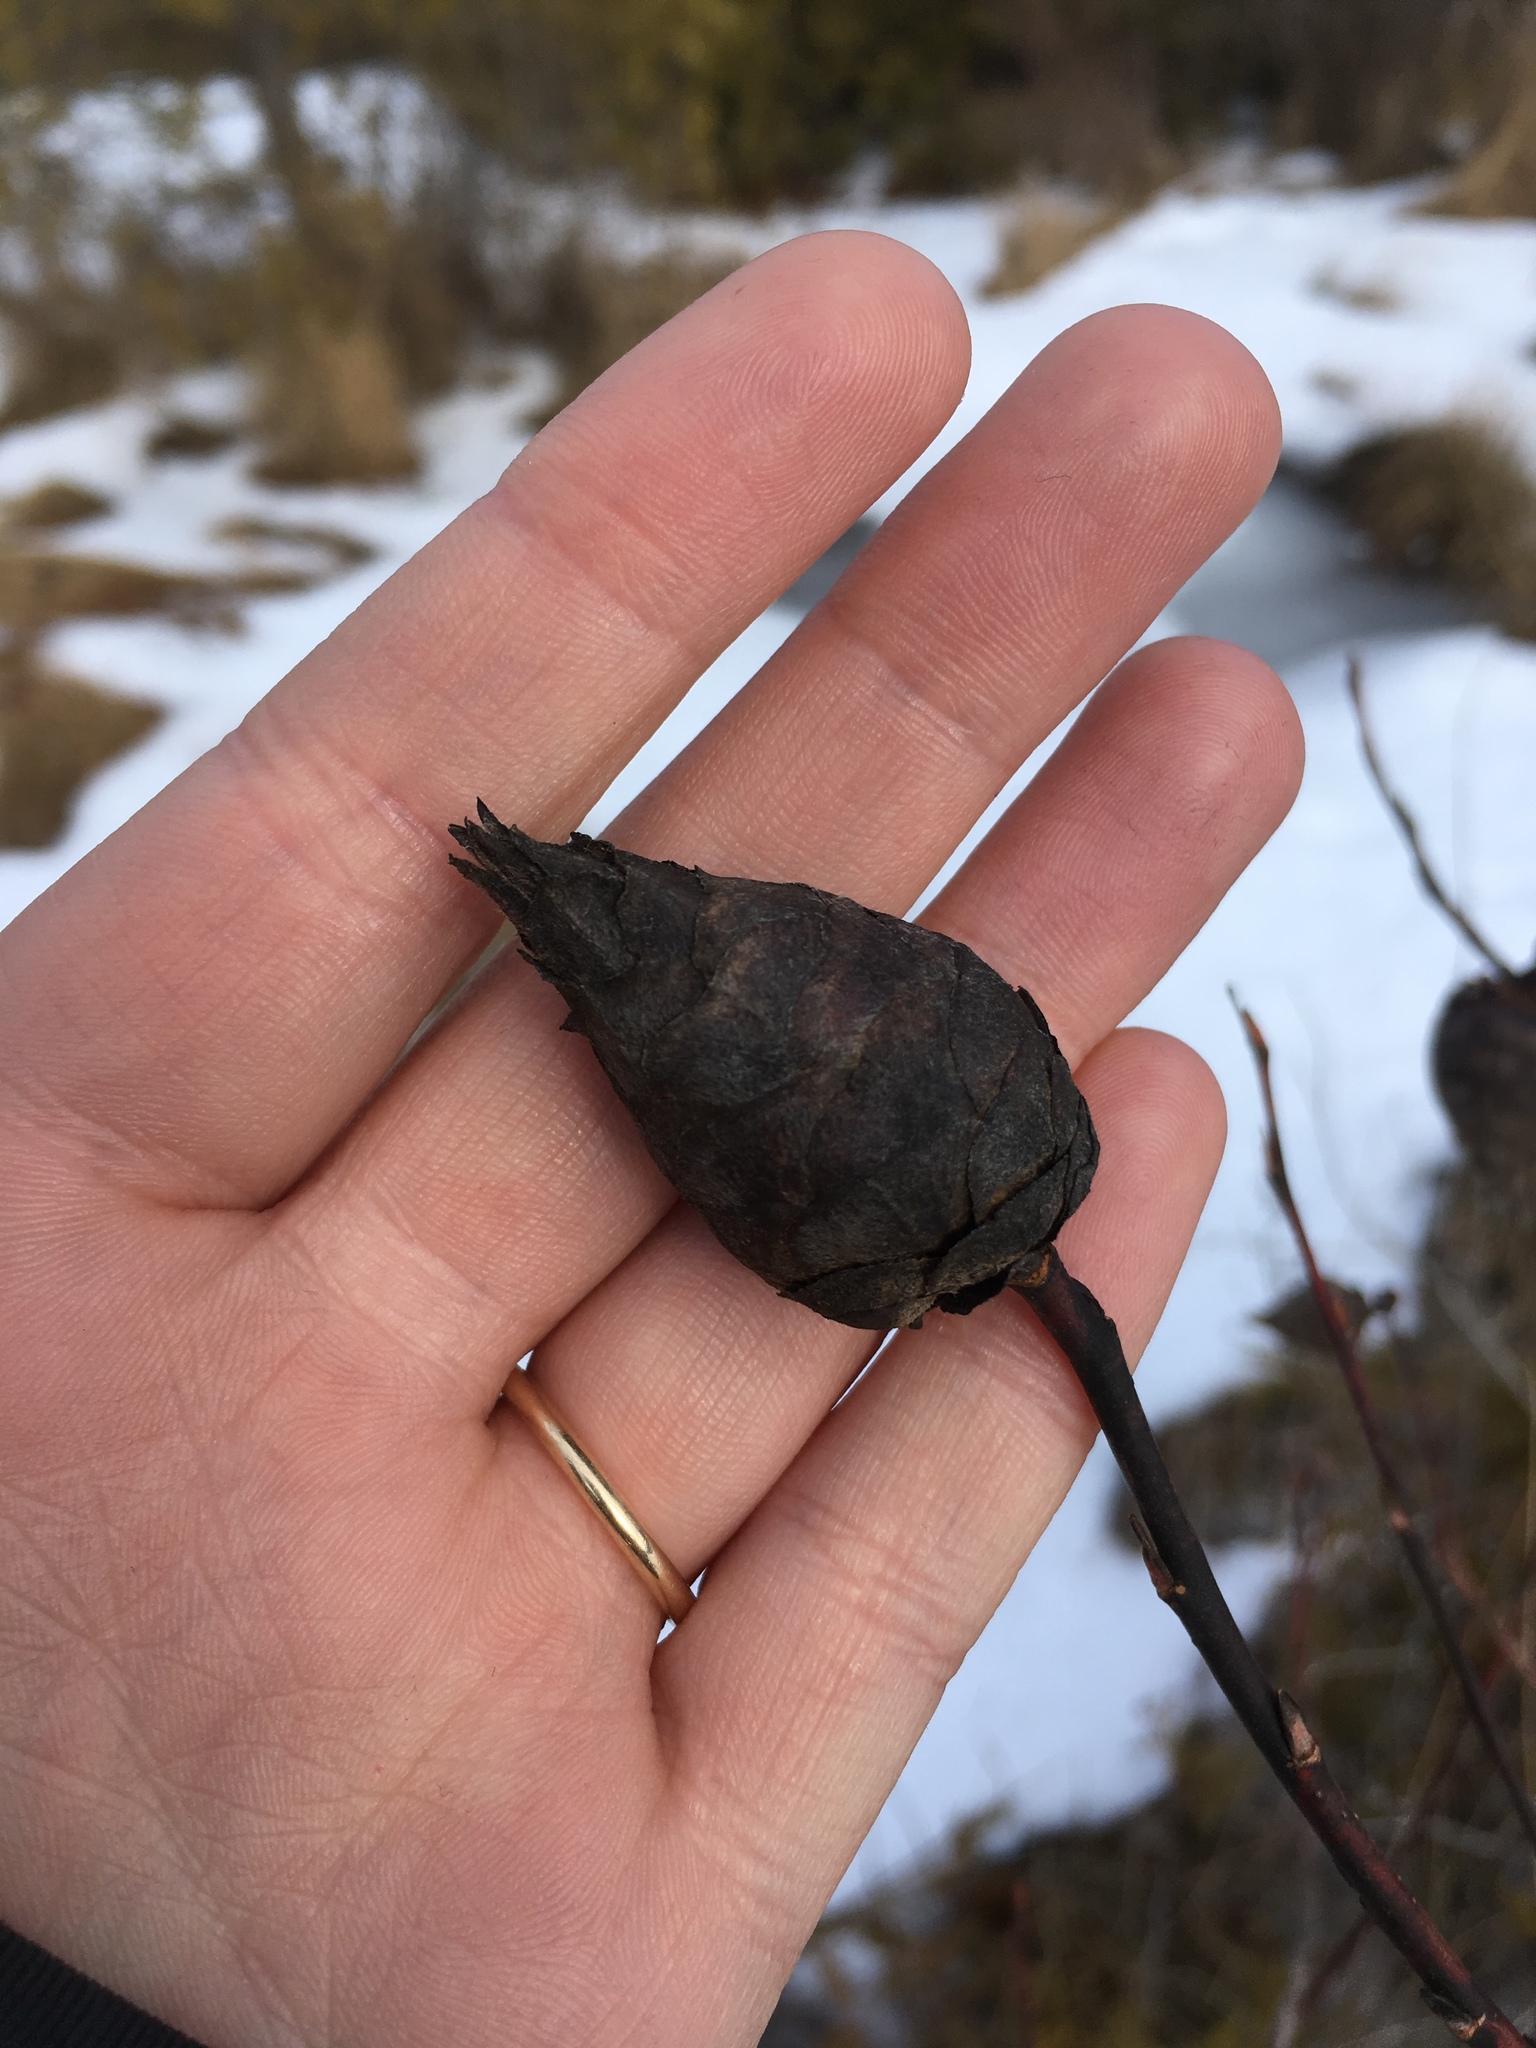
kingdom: Animalia
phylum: Arthropoda
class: Insecta
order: Diptera
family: Cecidomyiidae
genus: Rabdophaga
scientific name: Rabdophaga strobiloides
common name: Willow pinecone gall midge
